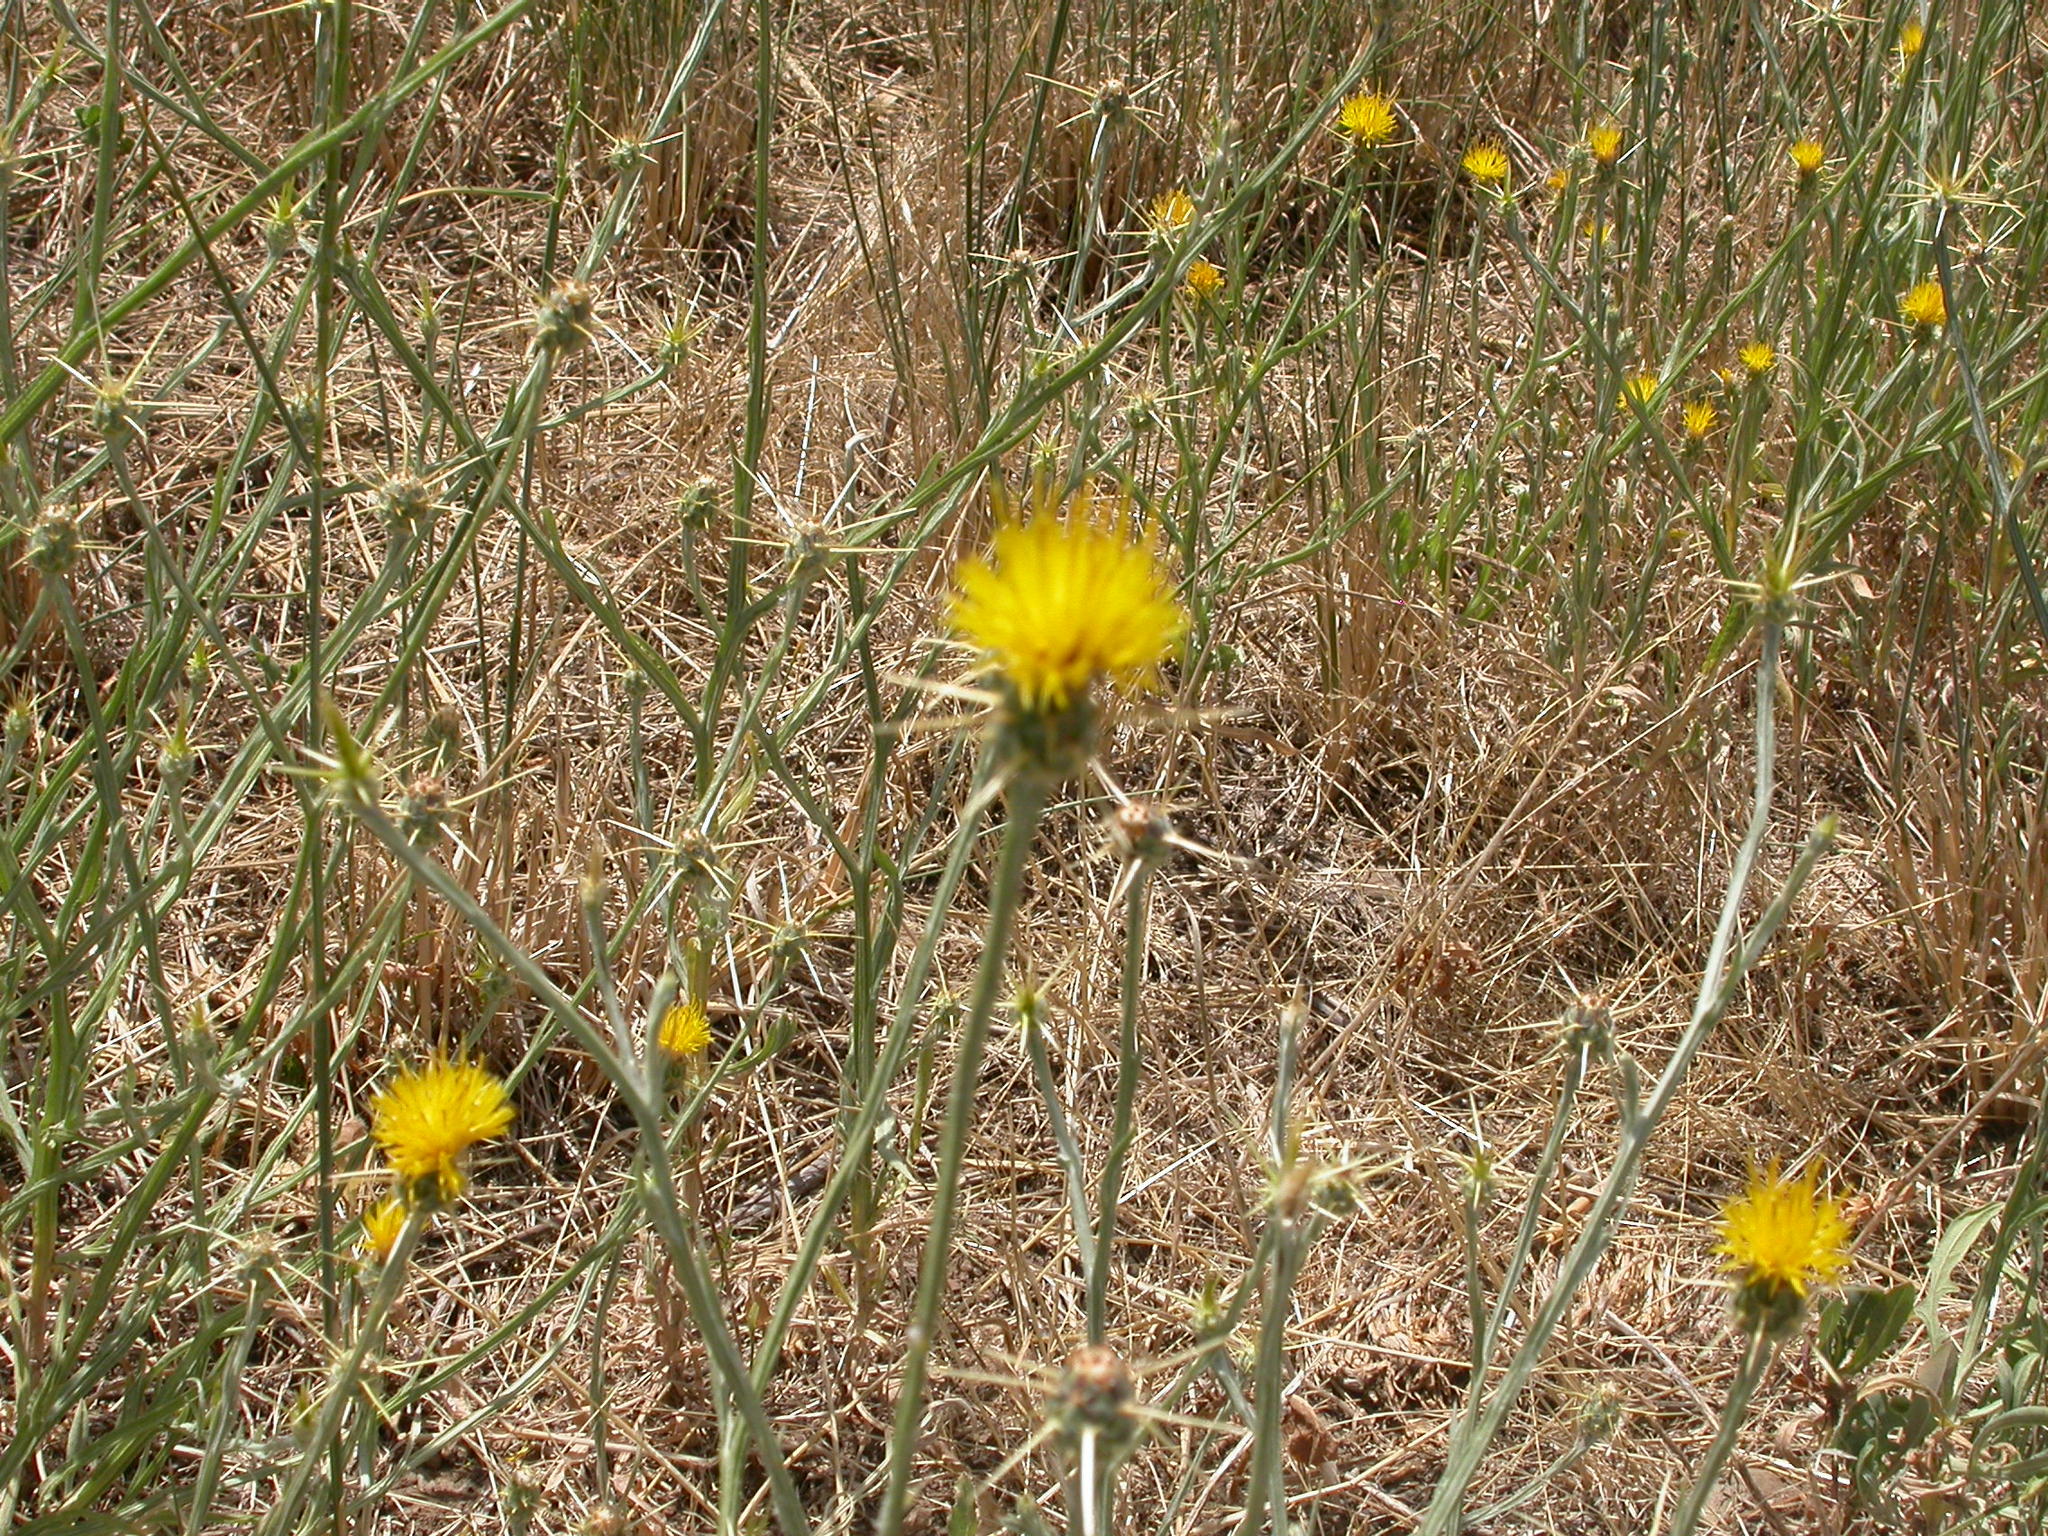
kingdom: Plantae
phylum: Tracheophyta
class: Magnoliopsida
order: Asterales
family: Asteraceae
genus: Centaurea
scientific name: Centaurea solstitialis
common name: Yellow star-thistle
